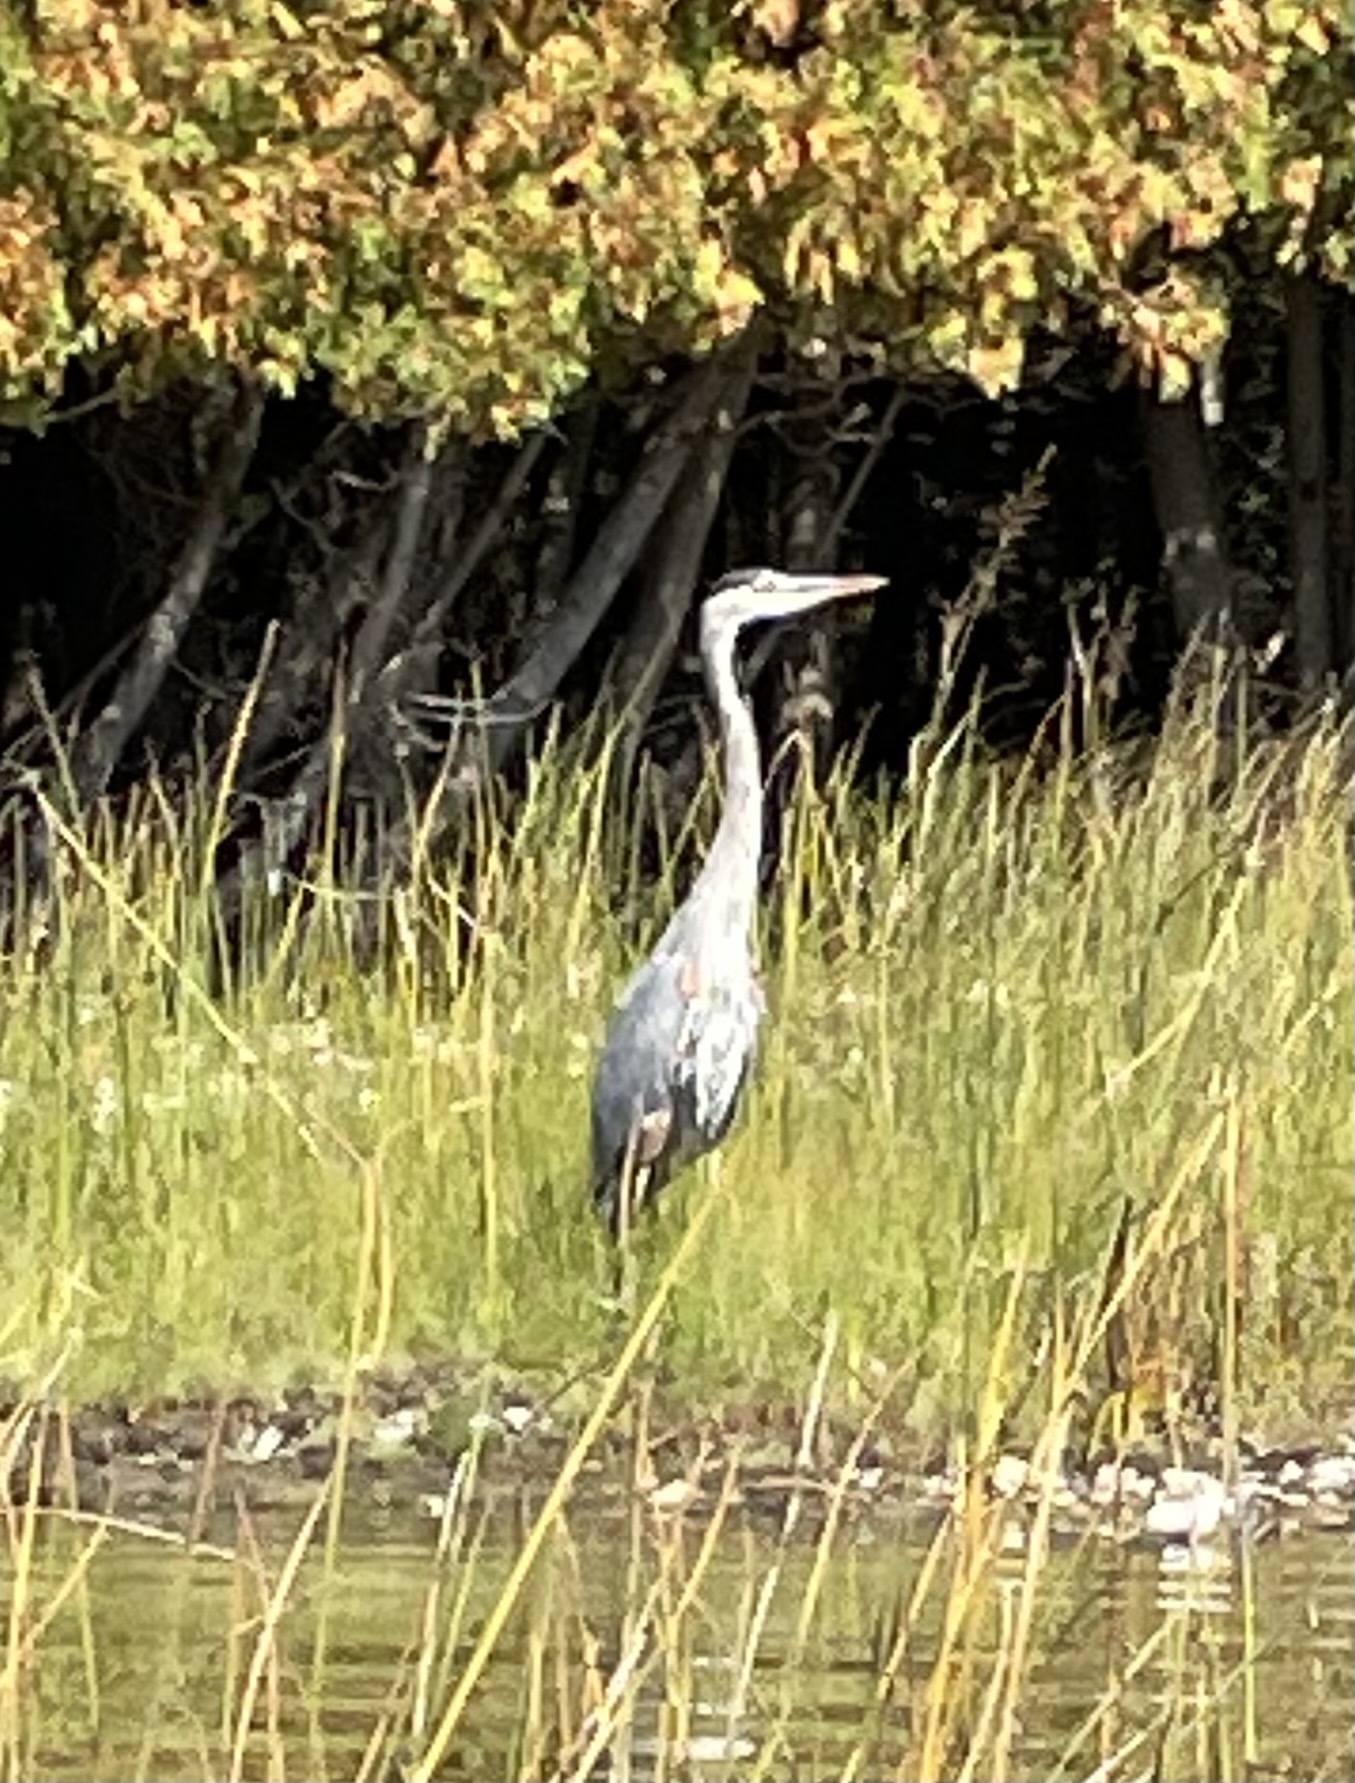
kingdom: Animalia
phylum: Chordata
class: Aves
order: Pelecaniformes
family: Ardeidae
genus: Ardea
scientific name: Ardea herodias
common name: Great blue heron
